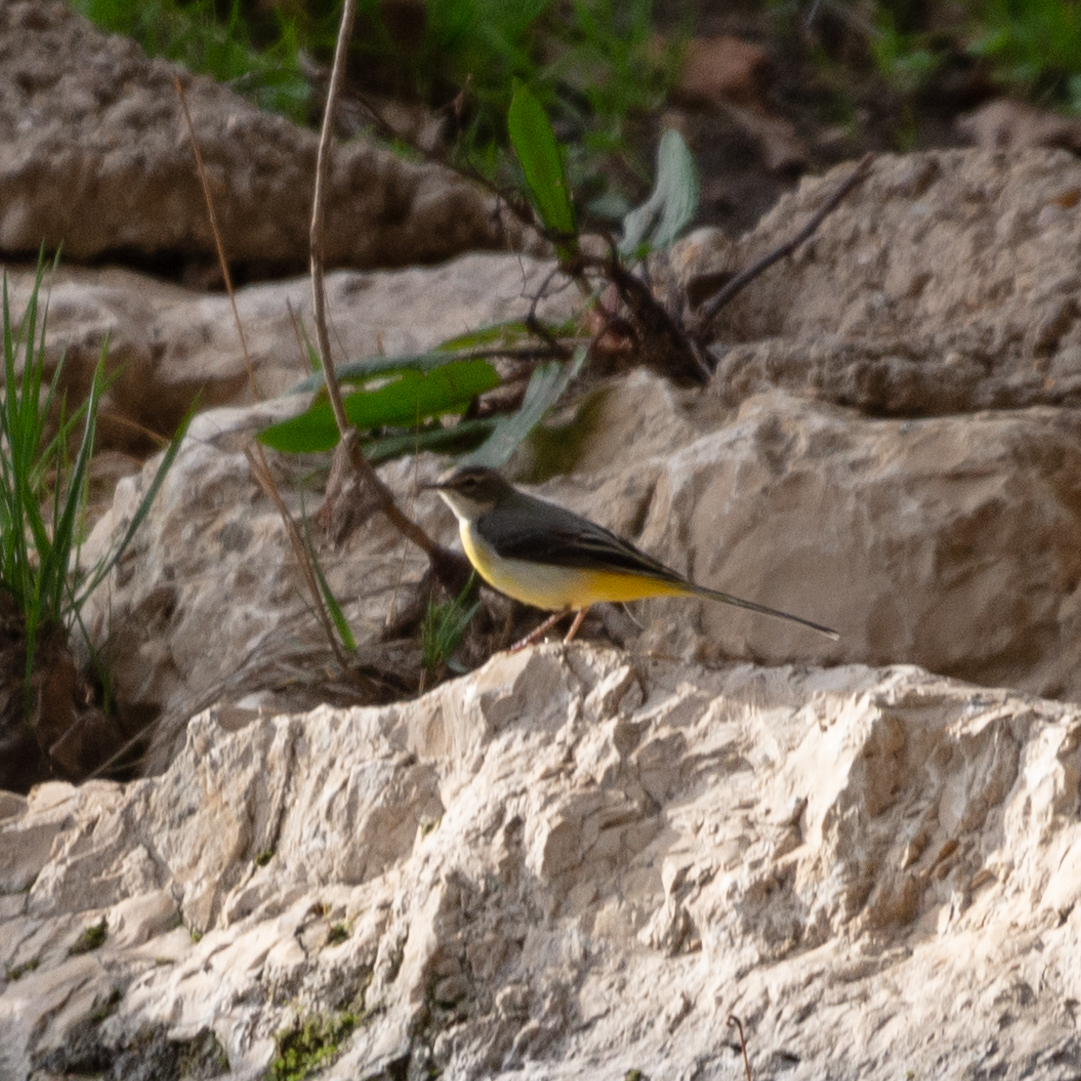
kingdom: Animalia
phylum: Chordata
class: Aves
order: Passeriformes
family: Motacillidae
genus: Motacilla
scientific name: Motacilla cinerea
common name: Grey wagtail
